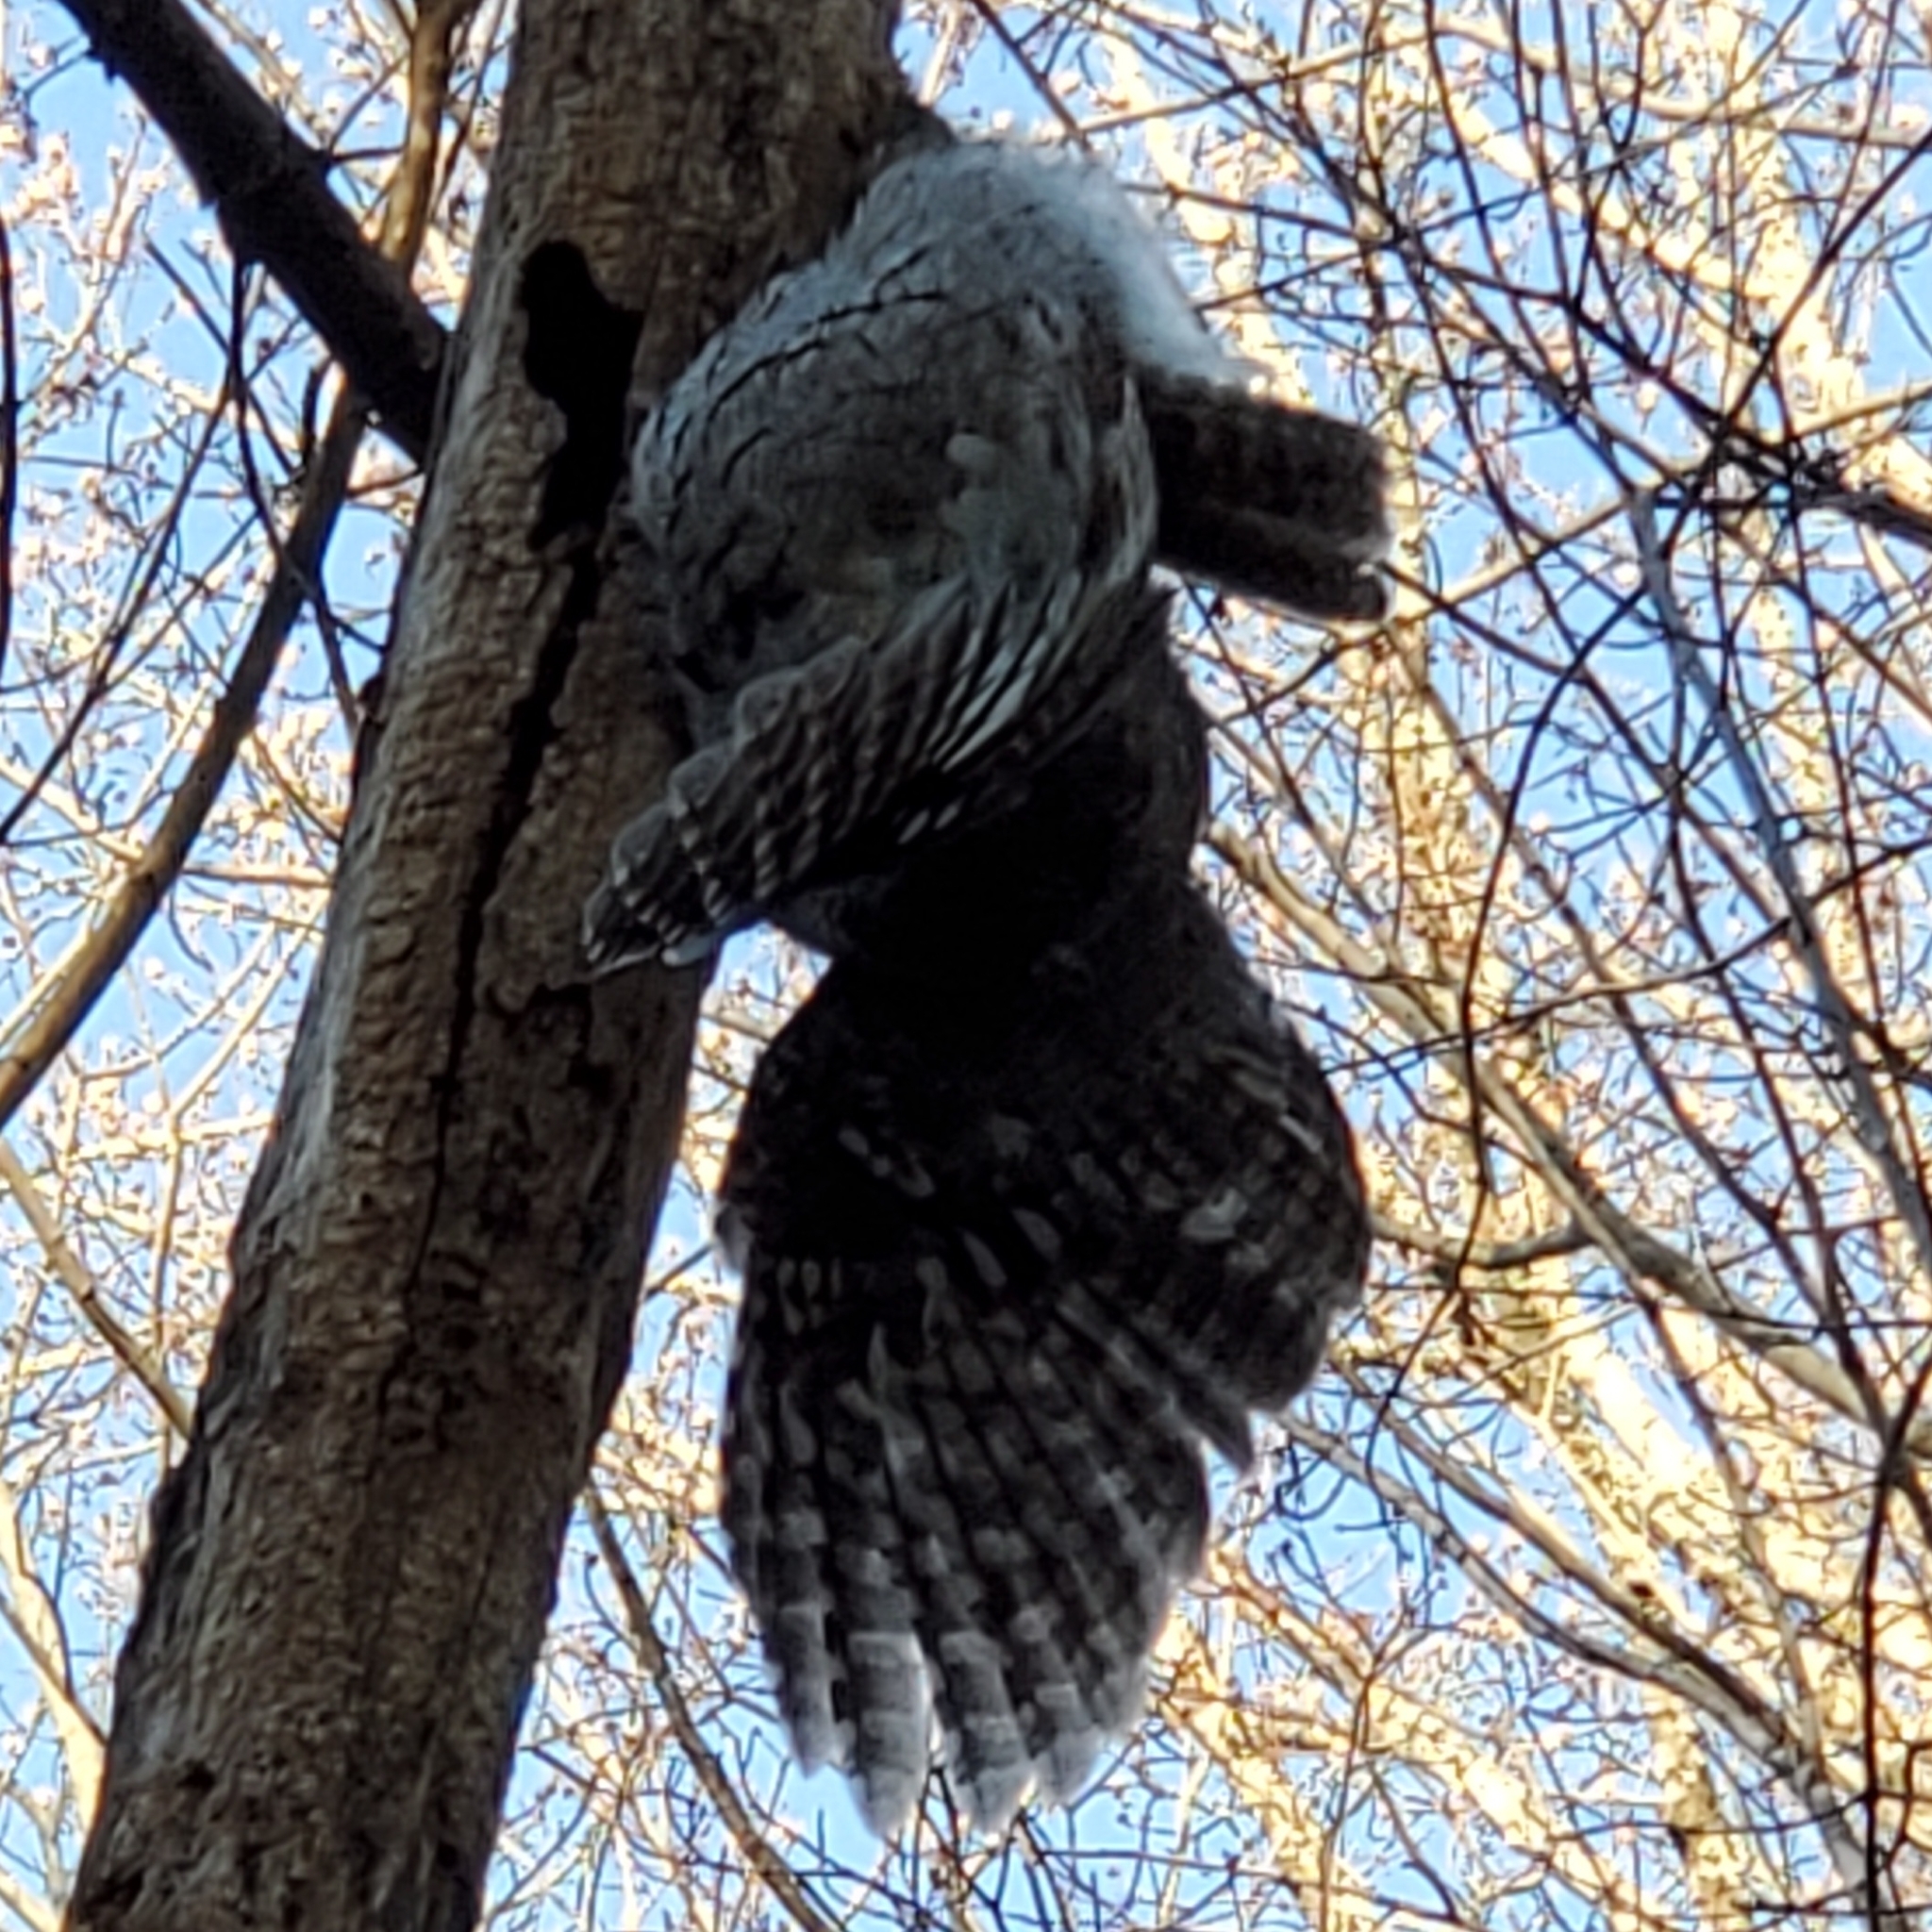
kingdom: Animalia
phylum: Chordata
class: Aves
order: Strigiformes
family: Strigidae
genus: Megascops
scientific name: Megascops asio
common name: Eastern screech-owl
